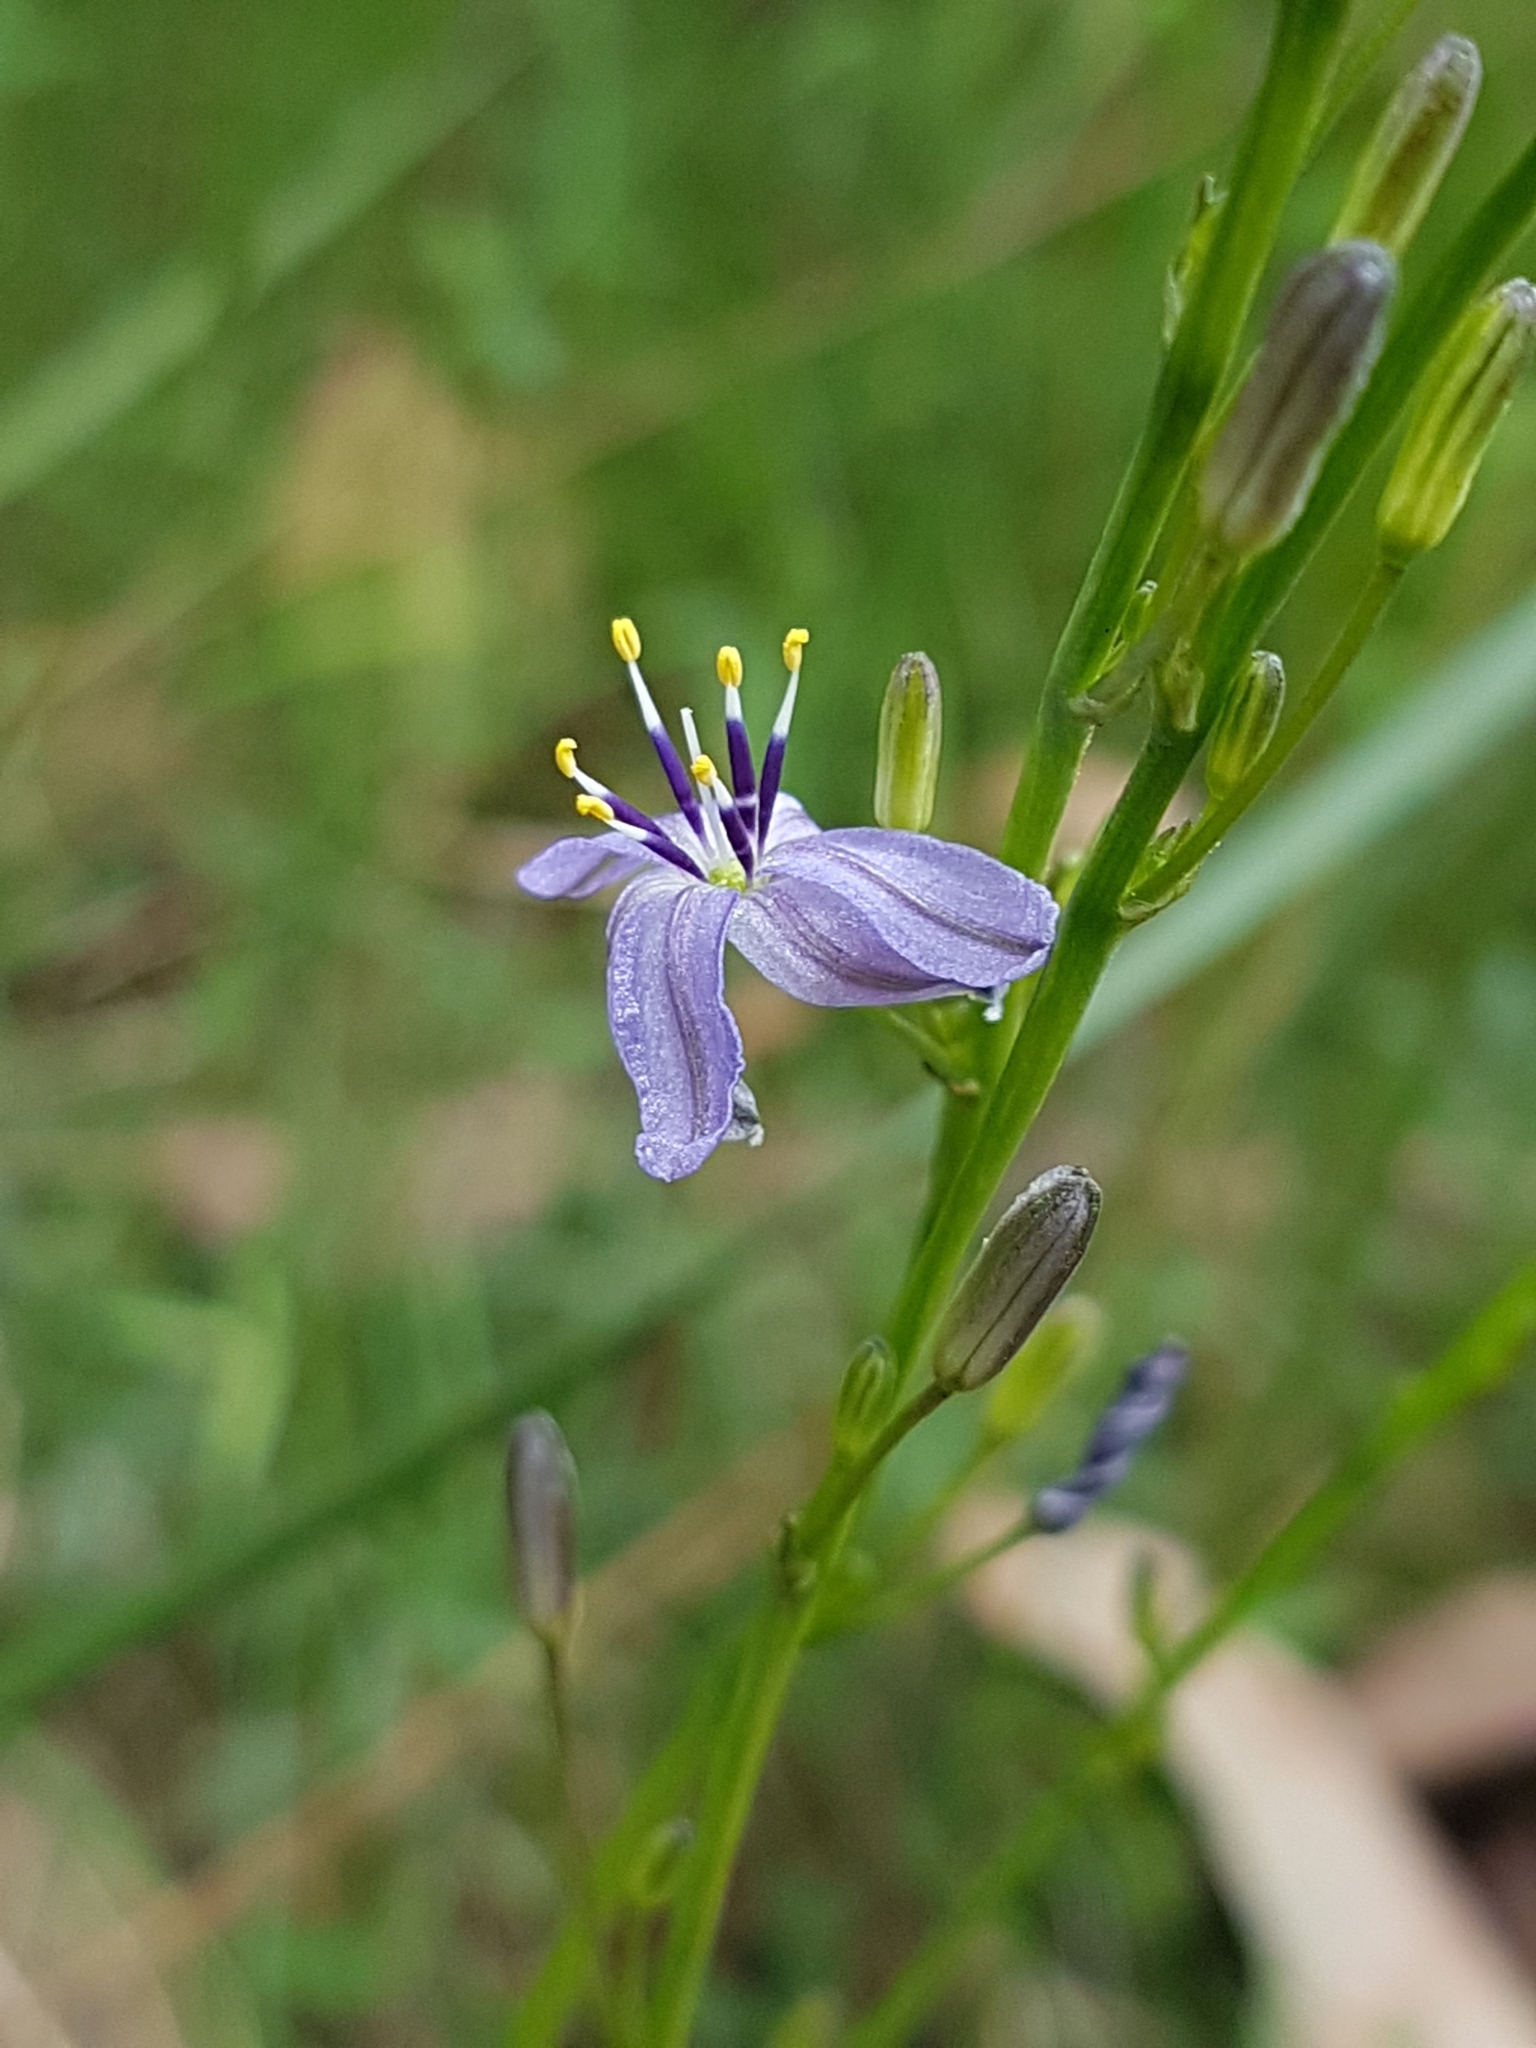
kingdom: Plantae
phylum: Tracheophyta
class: Liliopsida
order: Asparagales
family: Asphodelaceae
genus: Caesia
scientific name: Caesia calliantha
